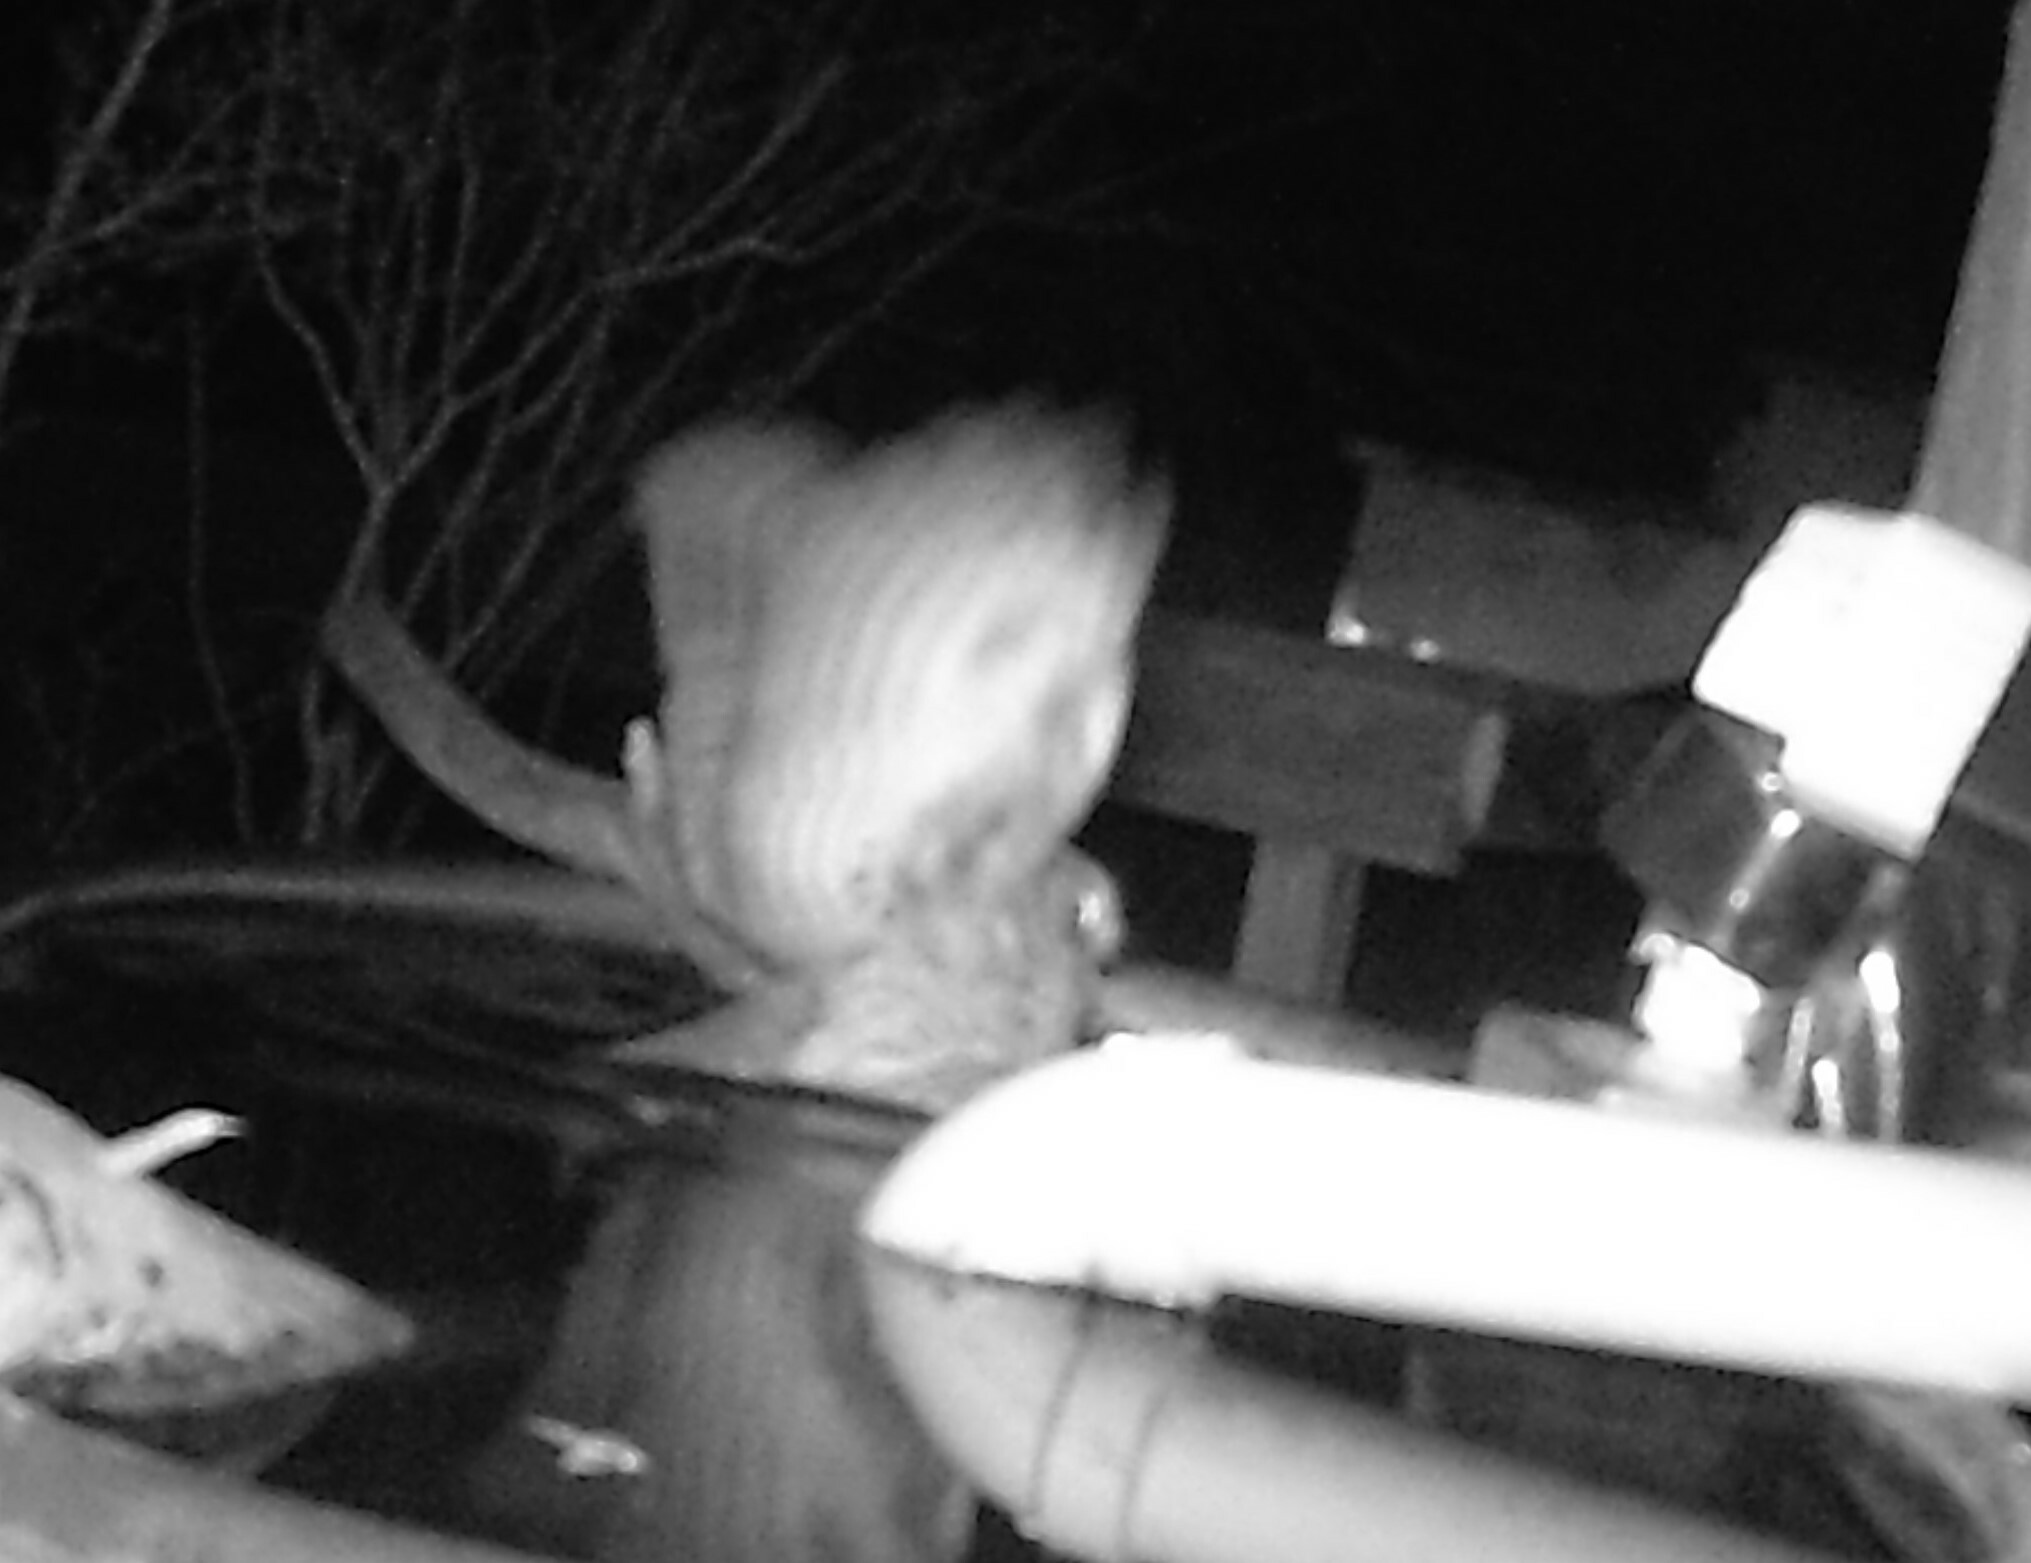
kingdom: Animalia
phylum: Chordata
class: Aves
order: Strigiformes
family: Strigidae
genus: Megascops
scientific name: Megascops asio
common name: Eastern screech-owl
